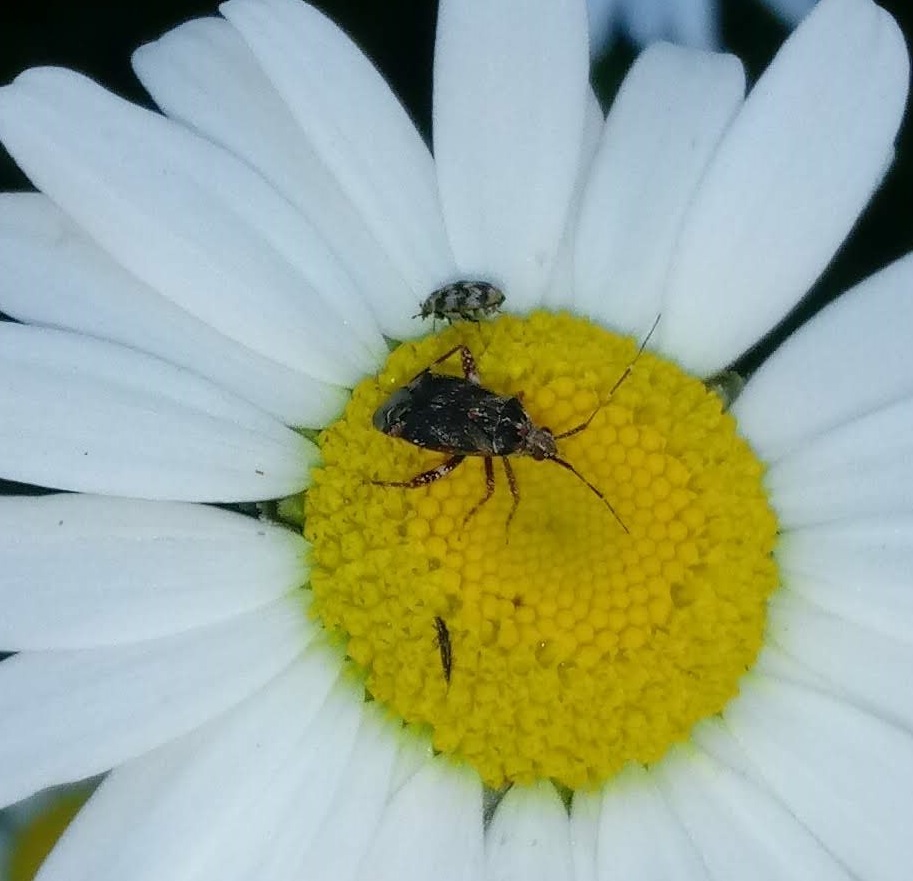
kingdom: Animalia
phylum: Arthropoda
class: Insecta
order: Coleoptera
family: Dermestidae
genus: Anthrenus
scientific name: Anthrenus verbasci
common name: Varied carpet beetle
